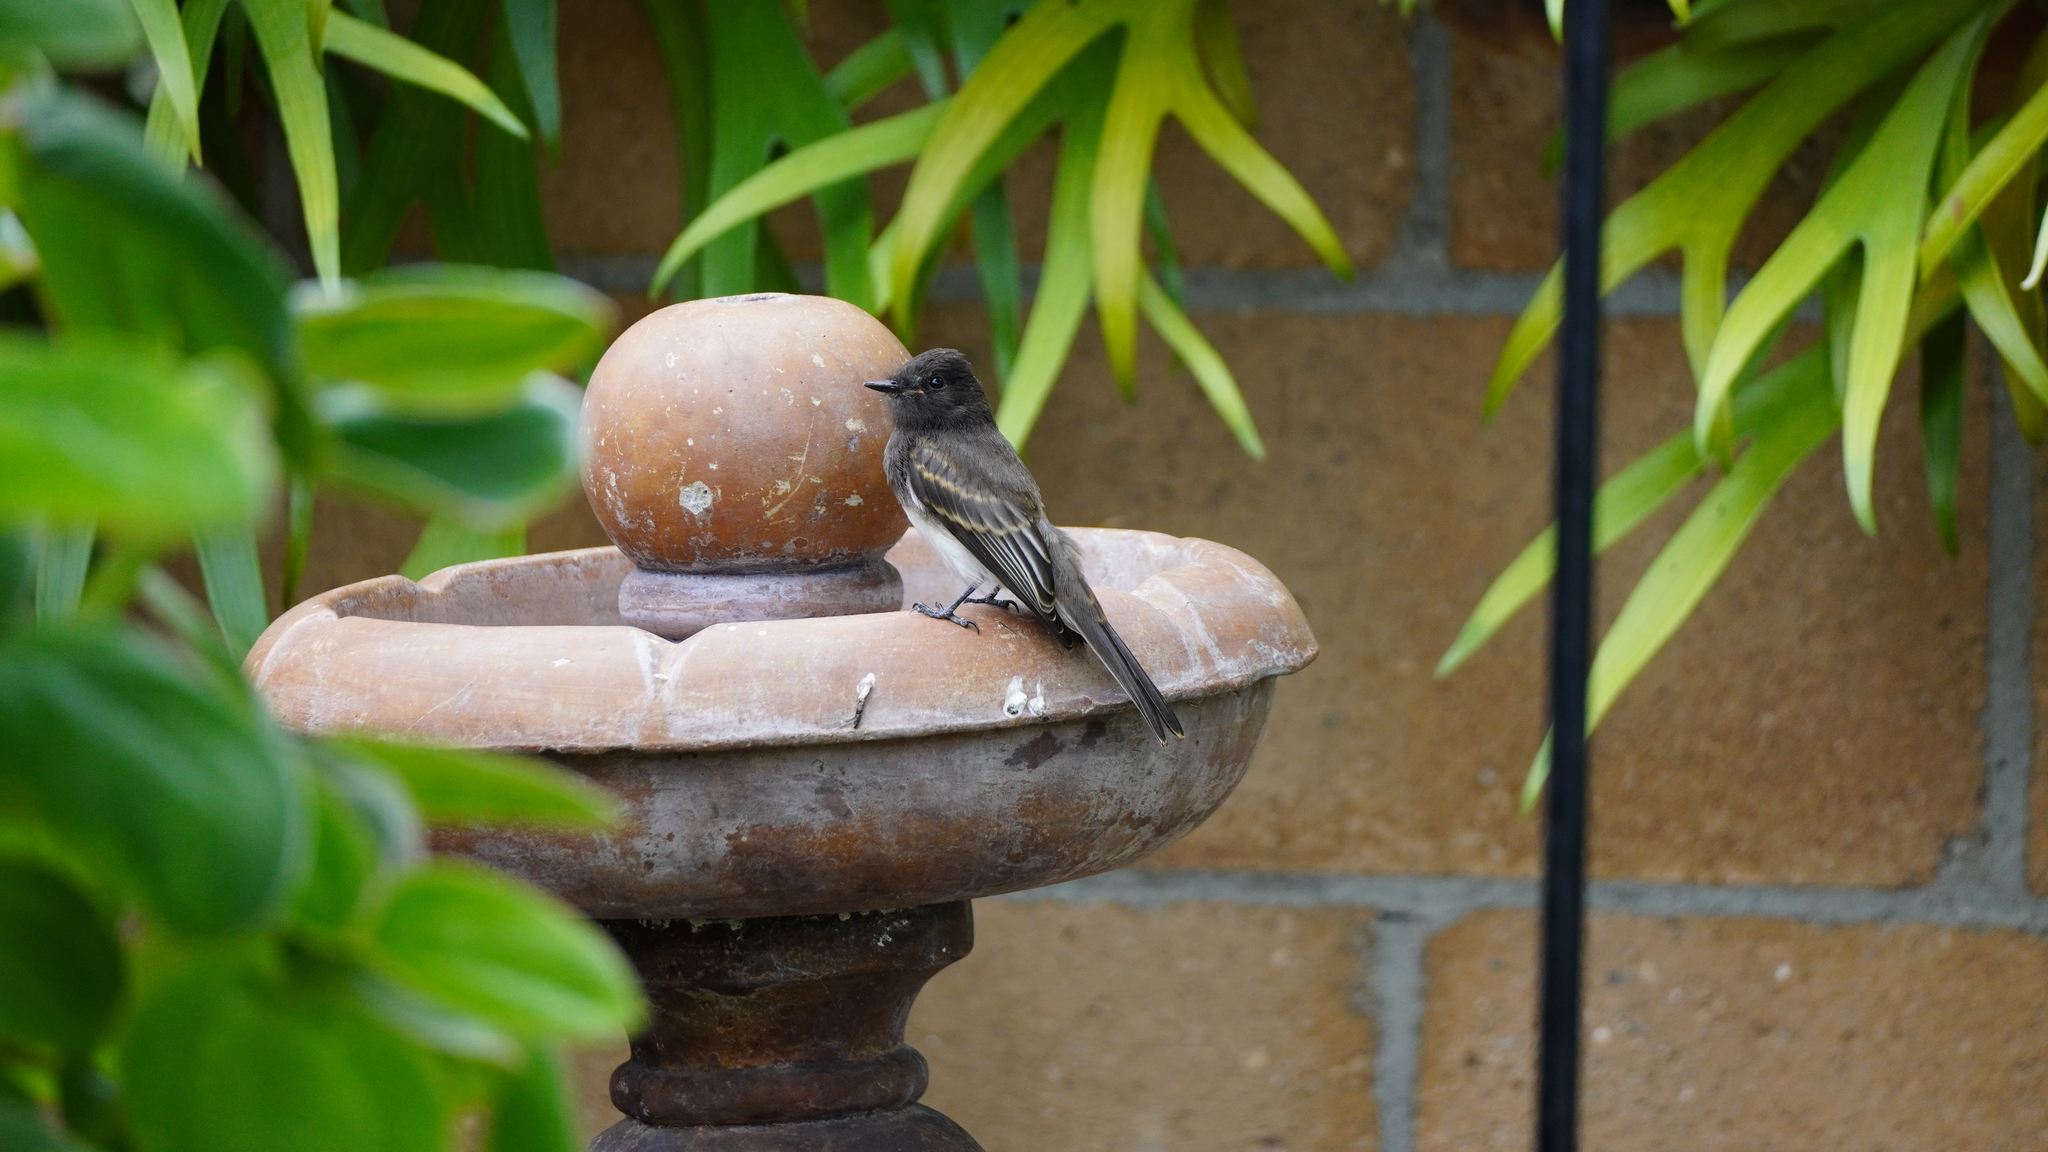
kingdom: Animalia
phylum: Chordata
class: Aves
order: Passeriformes
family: Tyrannidae
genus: Sayornis
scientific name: Sayornis nigricans
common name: Black phoebe
